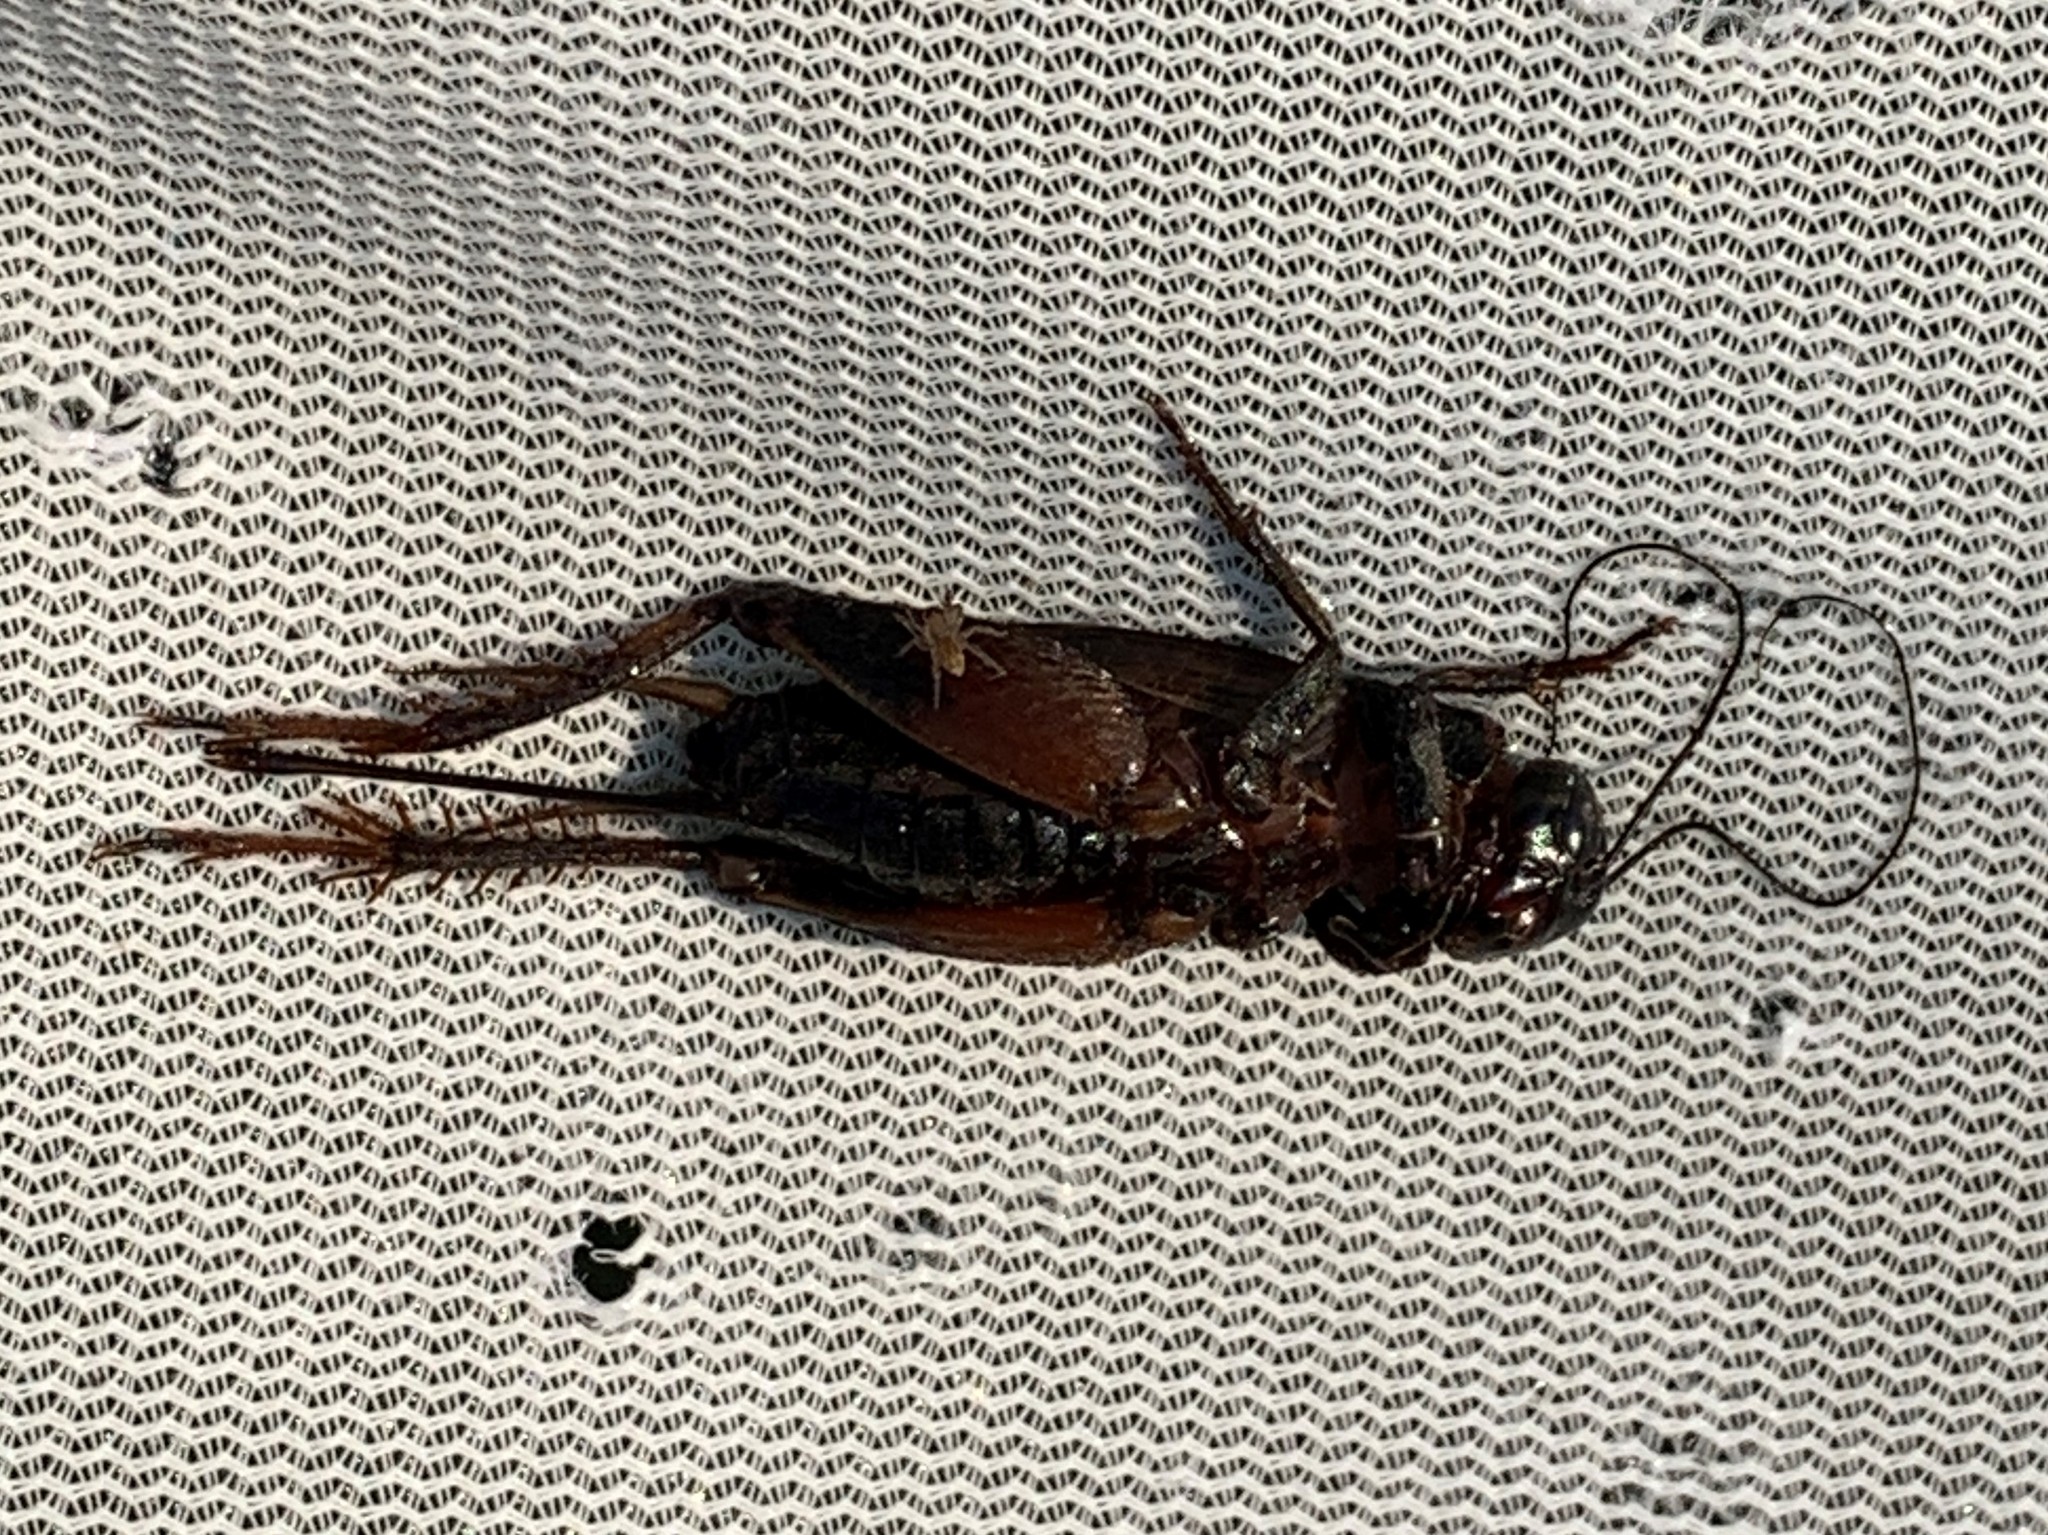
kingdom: Animalia
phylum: Arthropoda
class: Insecta
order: Orthoptera
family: Gryllidae
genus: Gryllus
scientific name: Gryllus pennsylvanicus
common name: Fall field cricket
